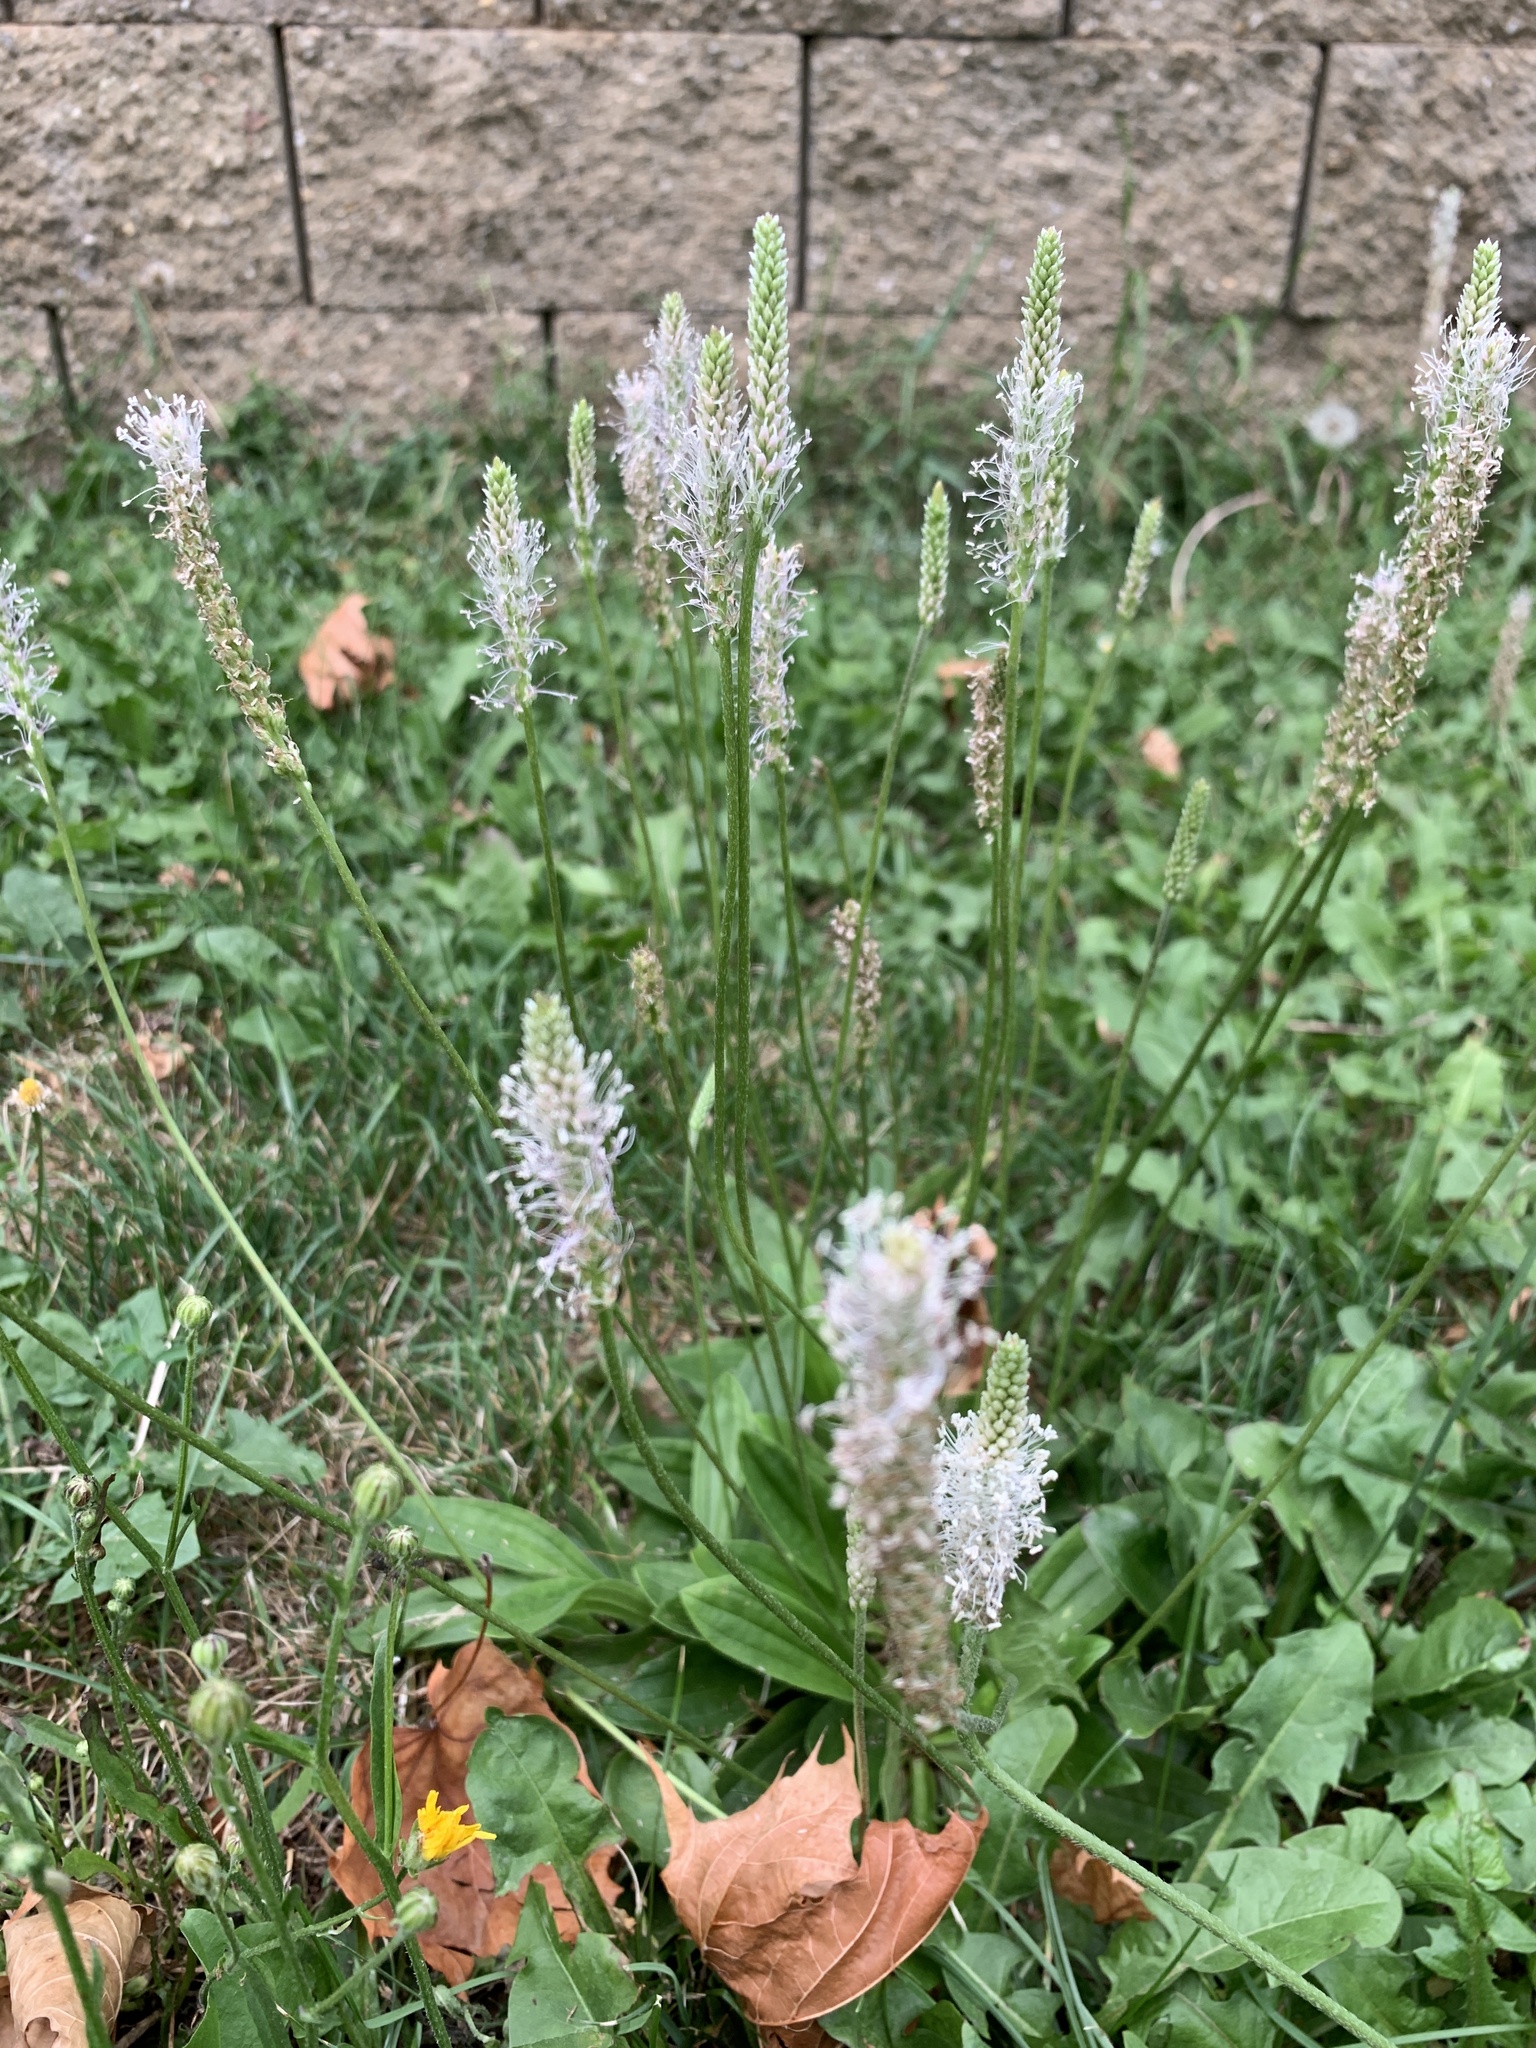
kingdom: Plantae
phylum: Tracheophyta
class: Magnoliopsida
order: Lamiales
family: Plantaginaceae
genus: Plantago
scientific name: Plantago media
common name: Hoary plantain
